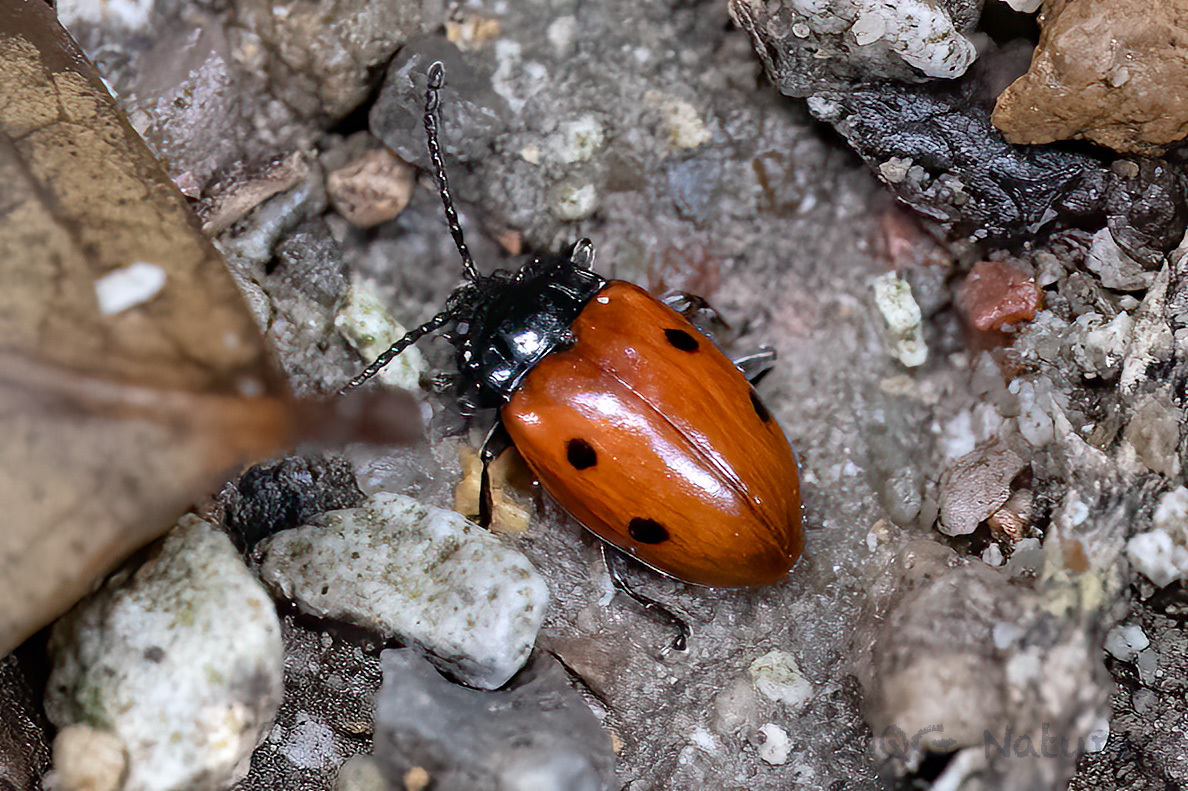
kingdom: Animalia
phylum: Arthropoda
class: Insecta
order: Coleoptera
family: Endomychidae
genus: Endomychus
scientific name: Endomychus
